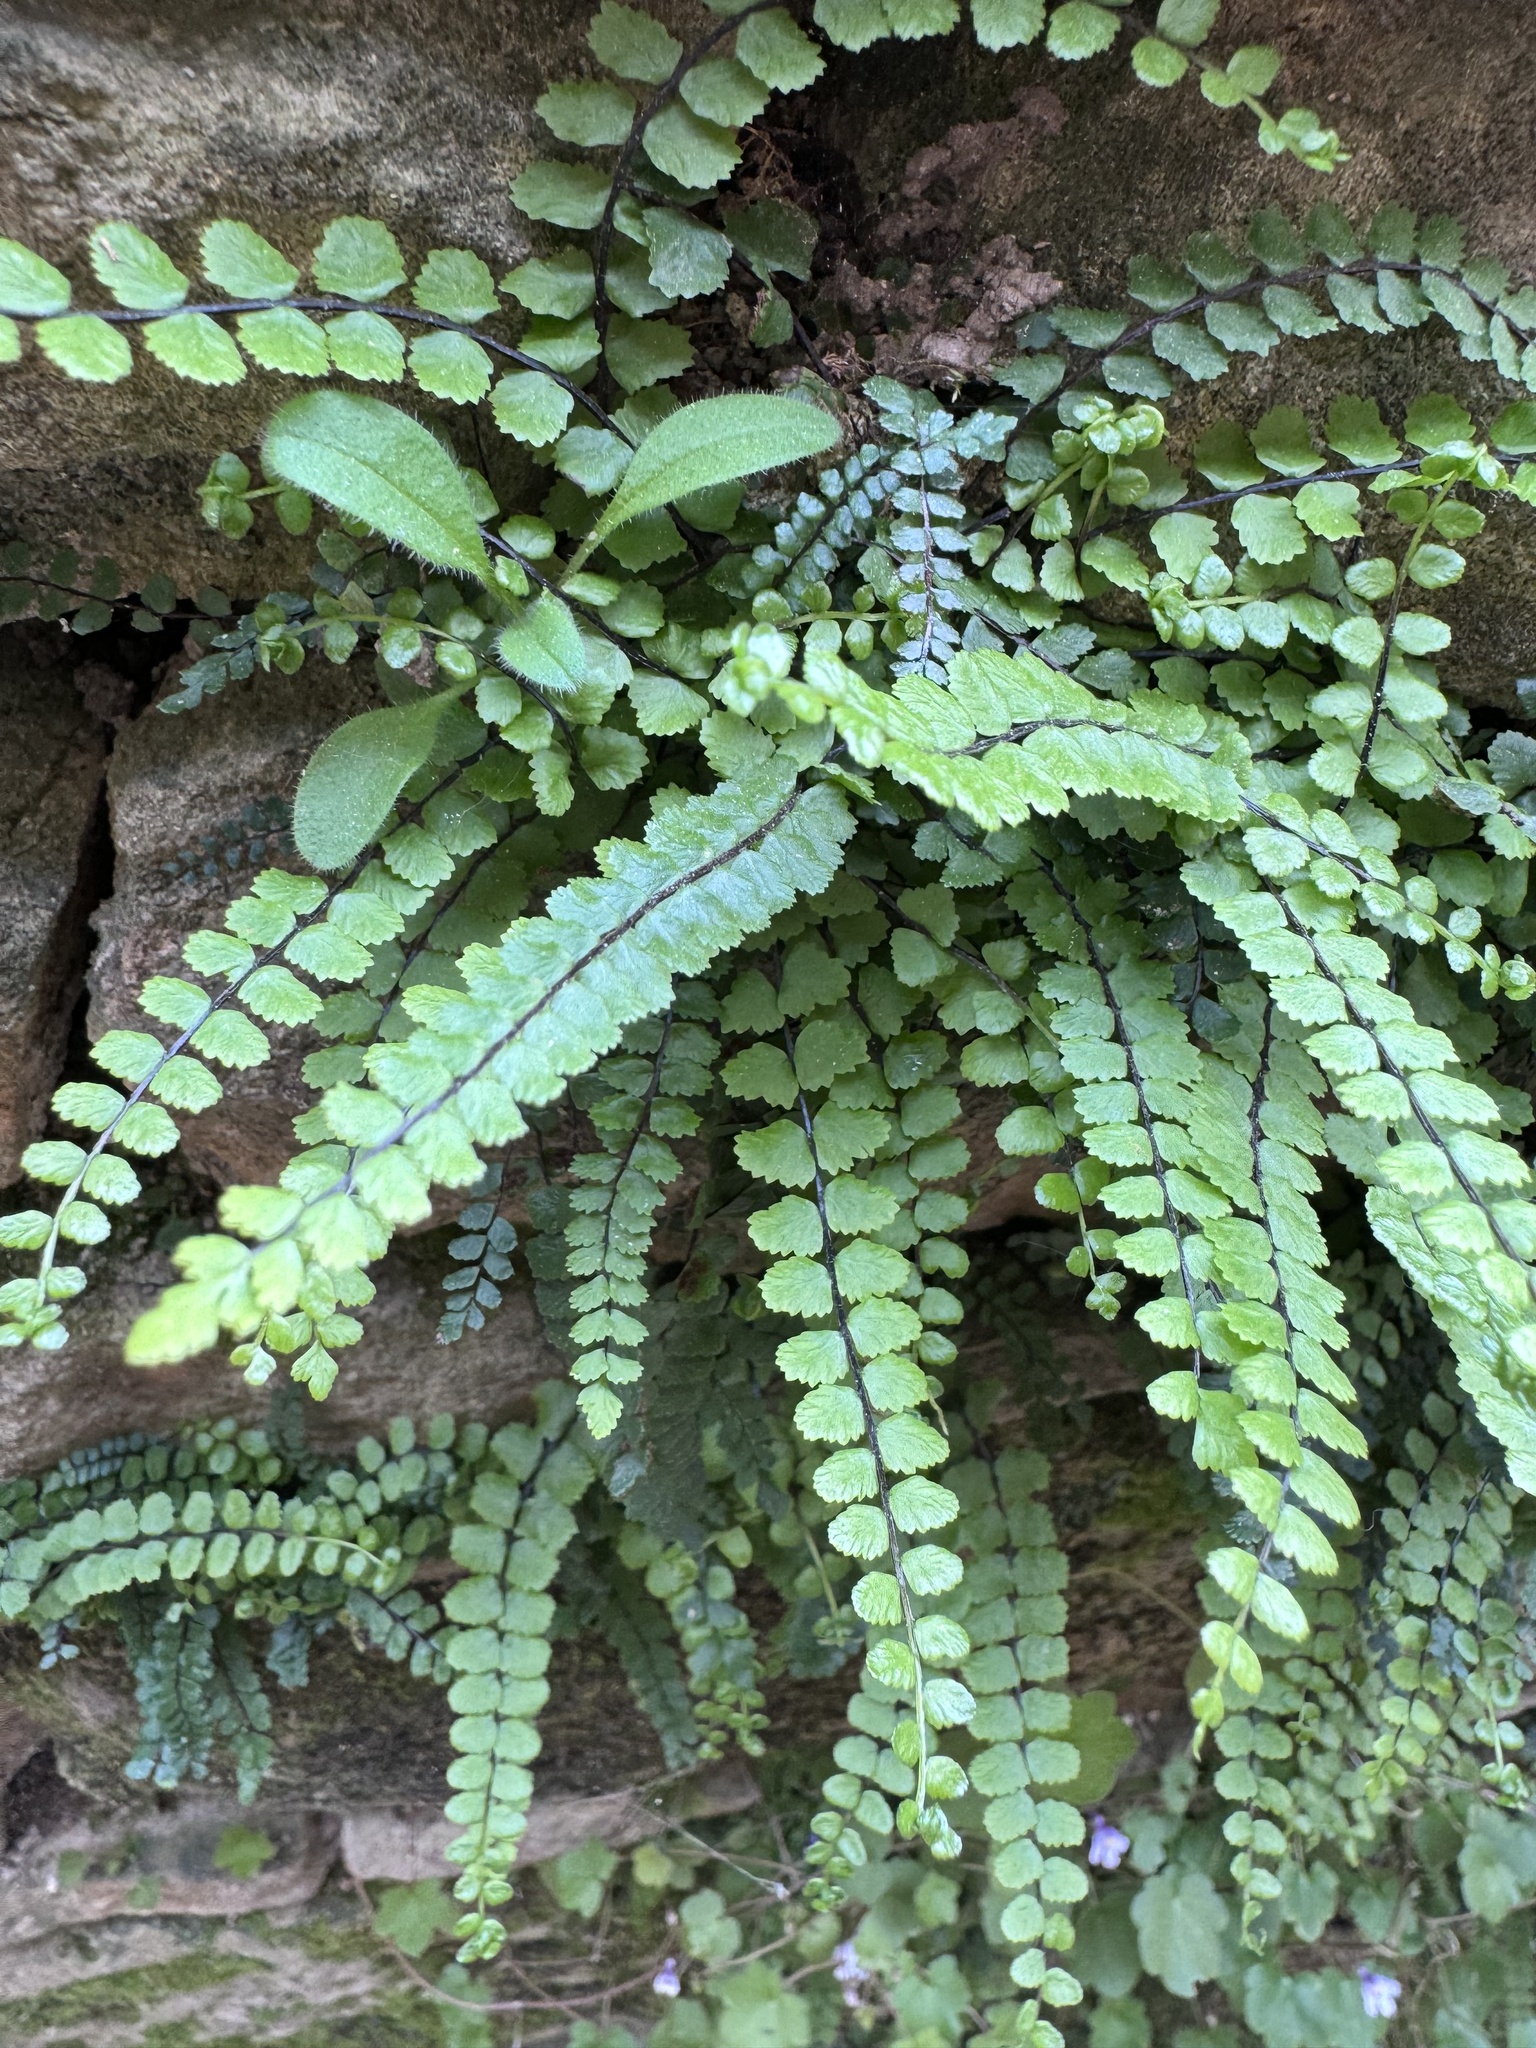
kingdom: Plantae
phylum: Tracheophyta
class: Polypodiopsida
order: Polypodiales
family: Aspleniaceae
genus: Asplenium
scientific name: Asplenium trichomanes
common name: Maidenhair spleenwort
